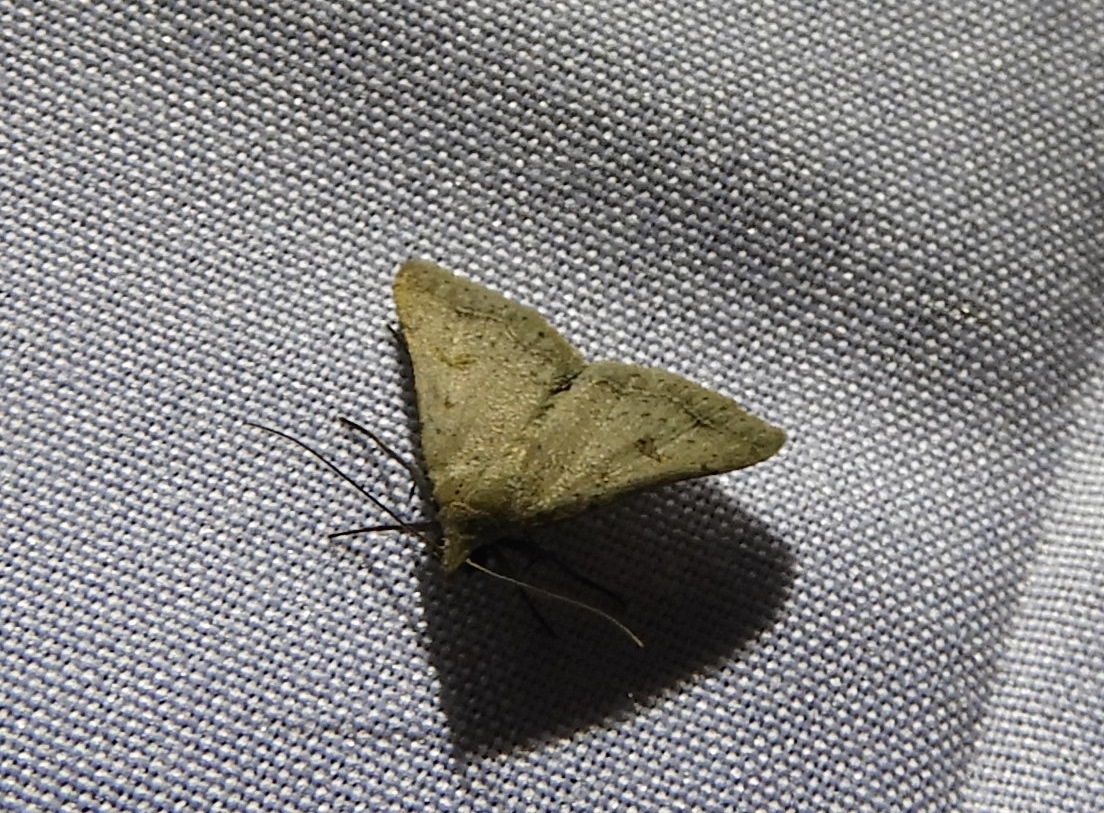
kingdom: Animalia
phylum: Arthropoda
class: Insecta
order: Lepidoptera
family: Erebidae
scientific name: Erebidae
